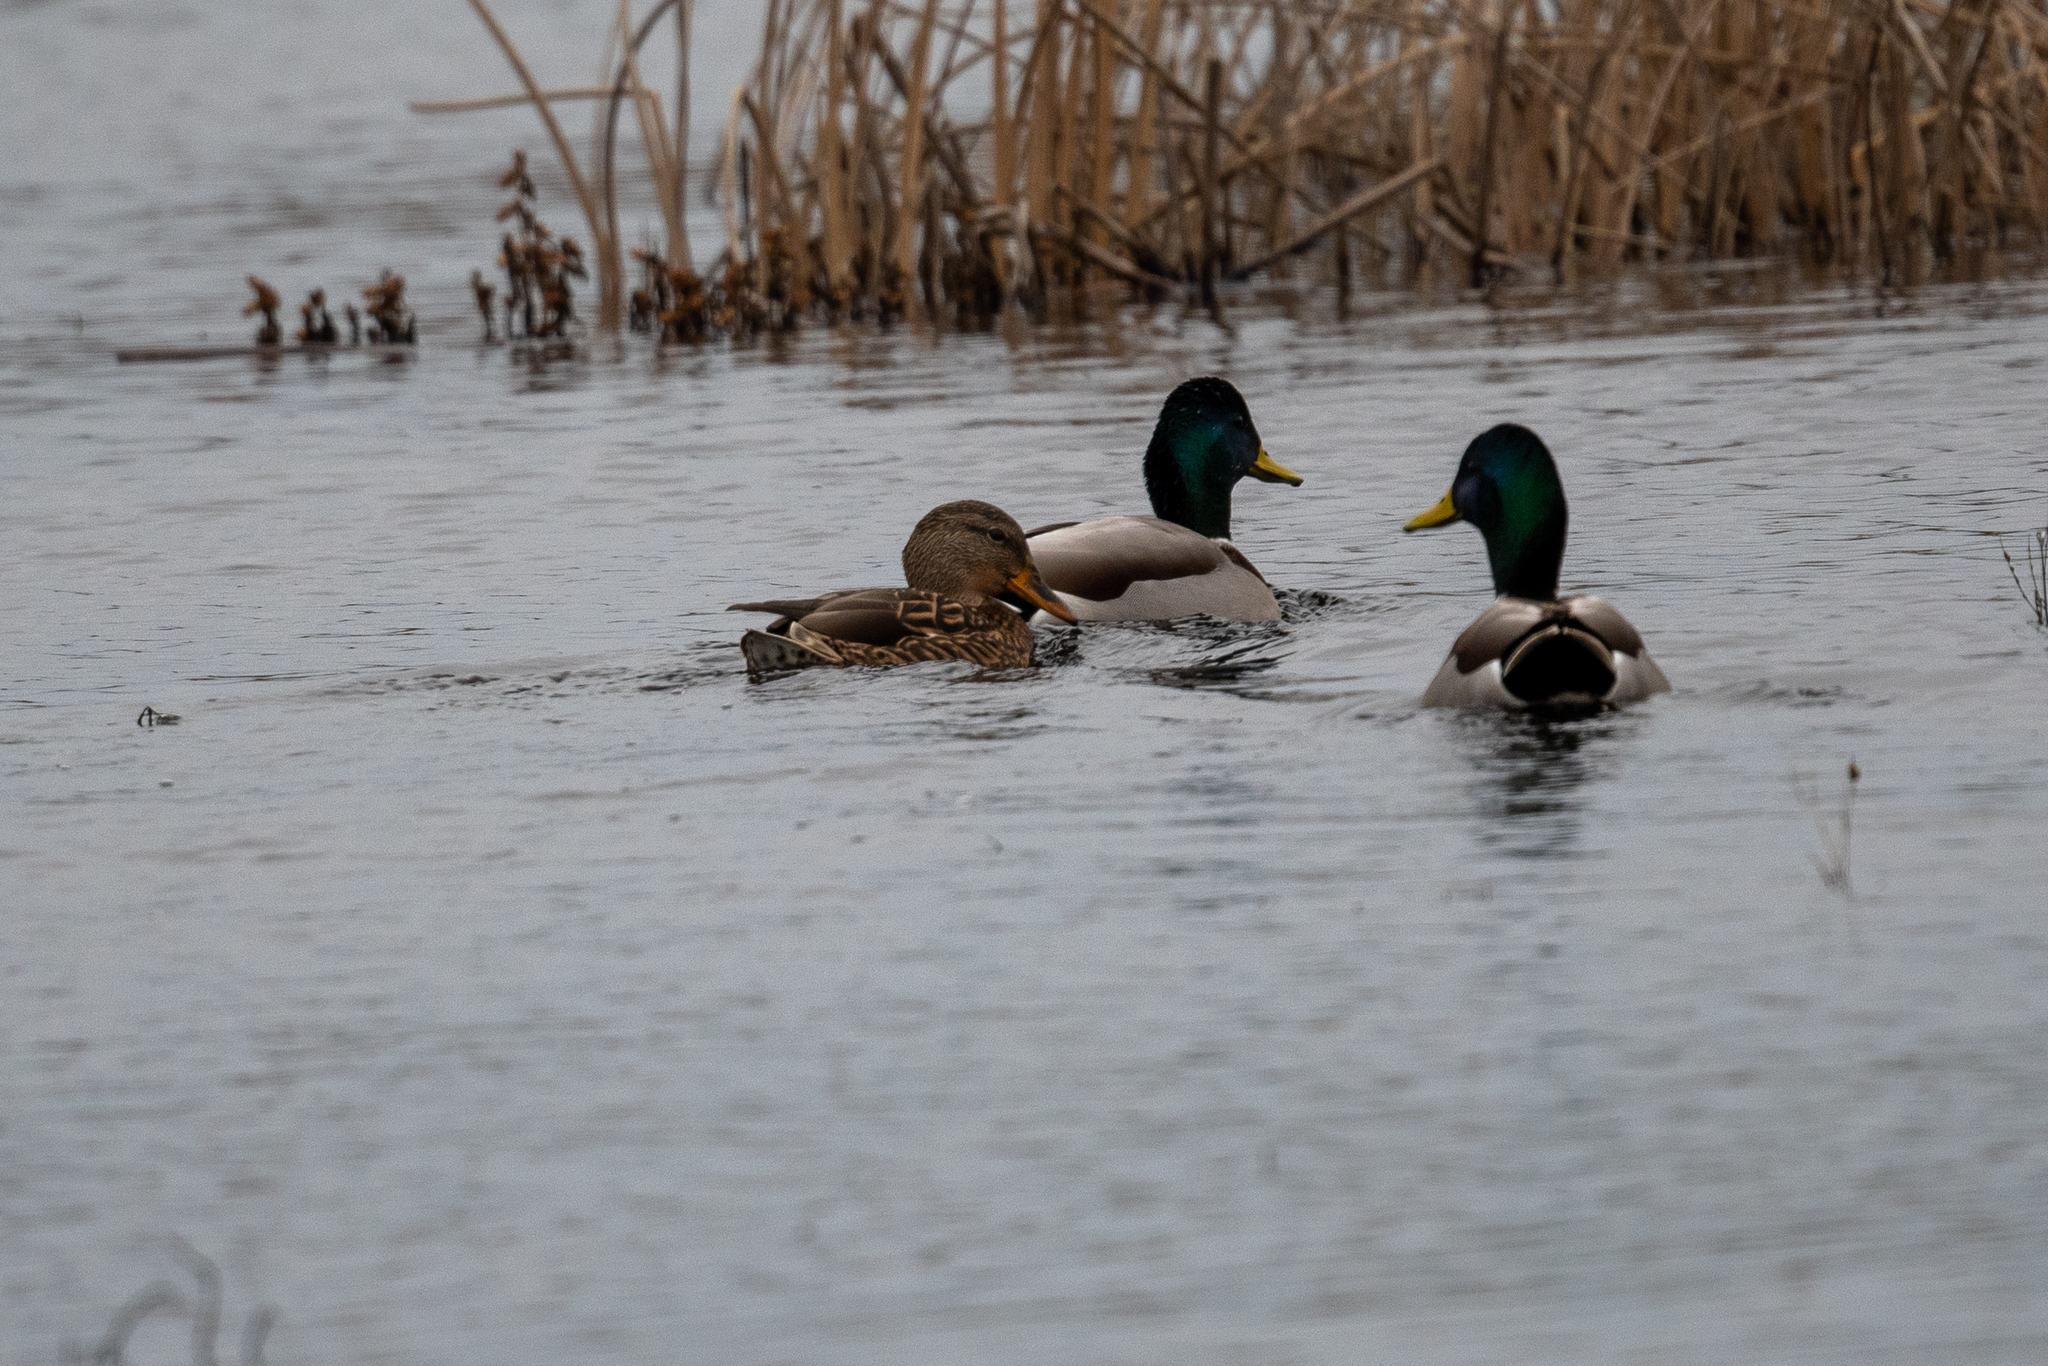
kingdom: Animalia
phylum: Chordata
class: Aves
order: Anseriformes
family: Anatidae
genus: Anas
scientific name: Anas platyrhynchos
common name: Mallard
